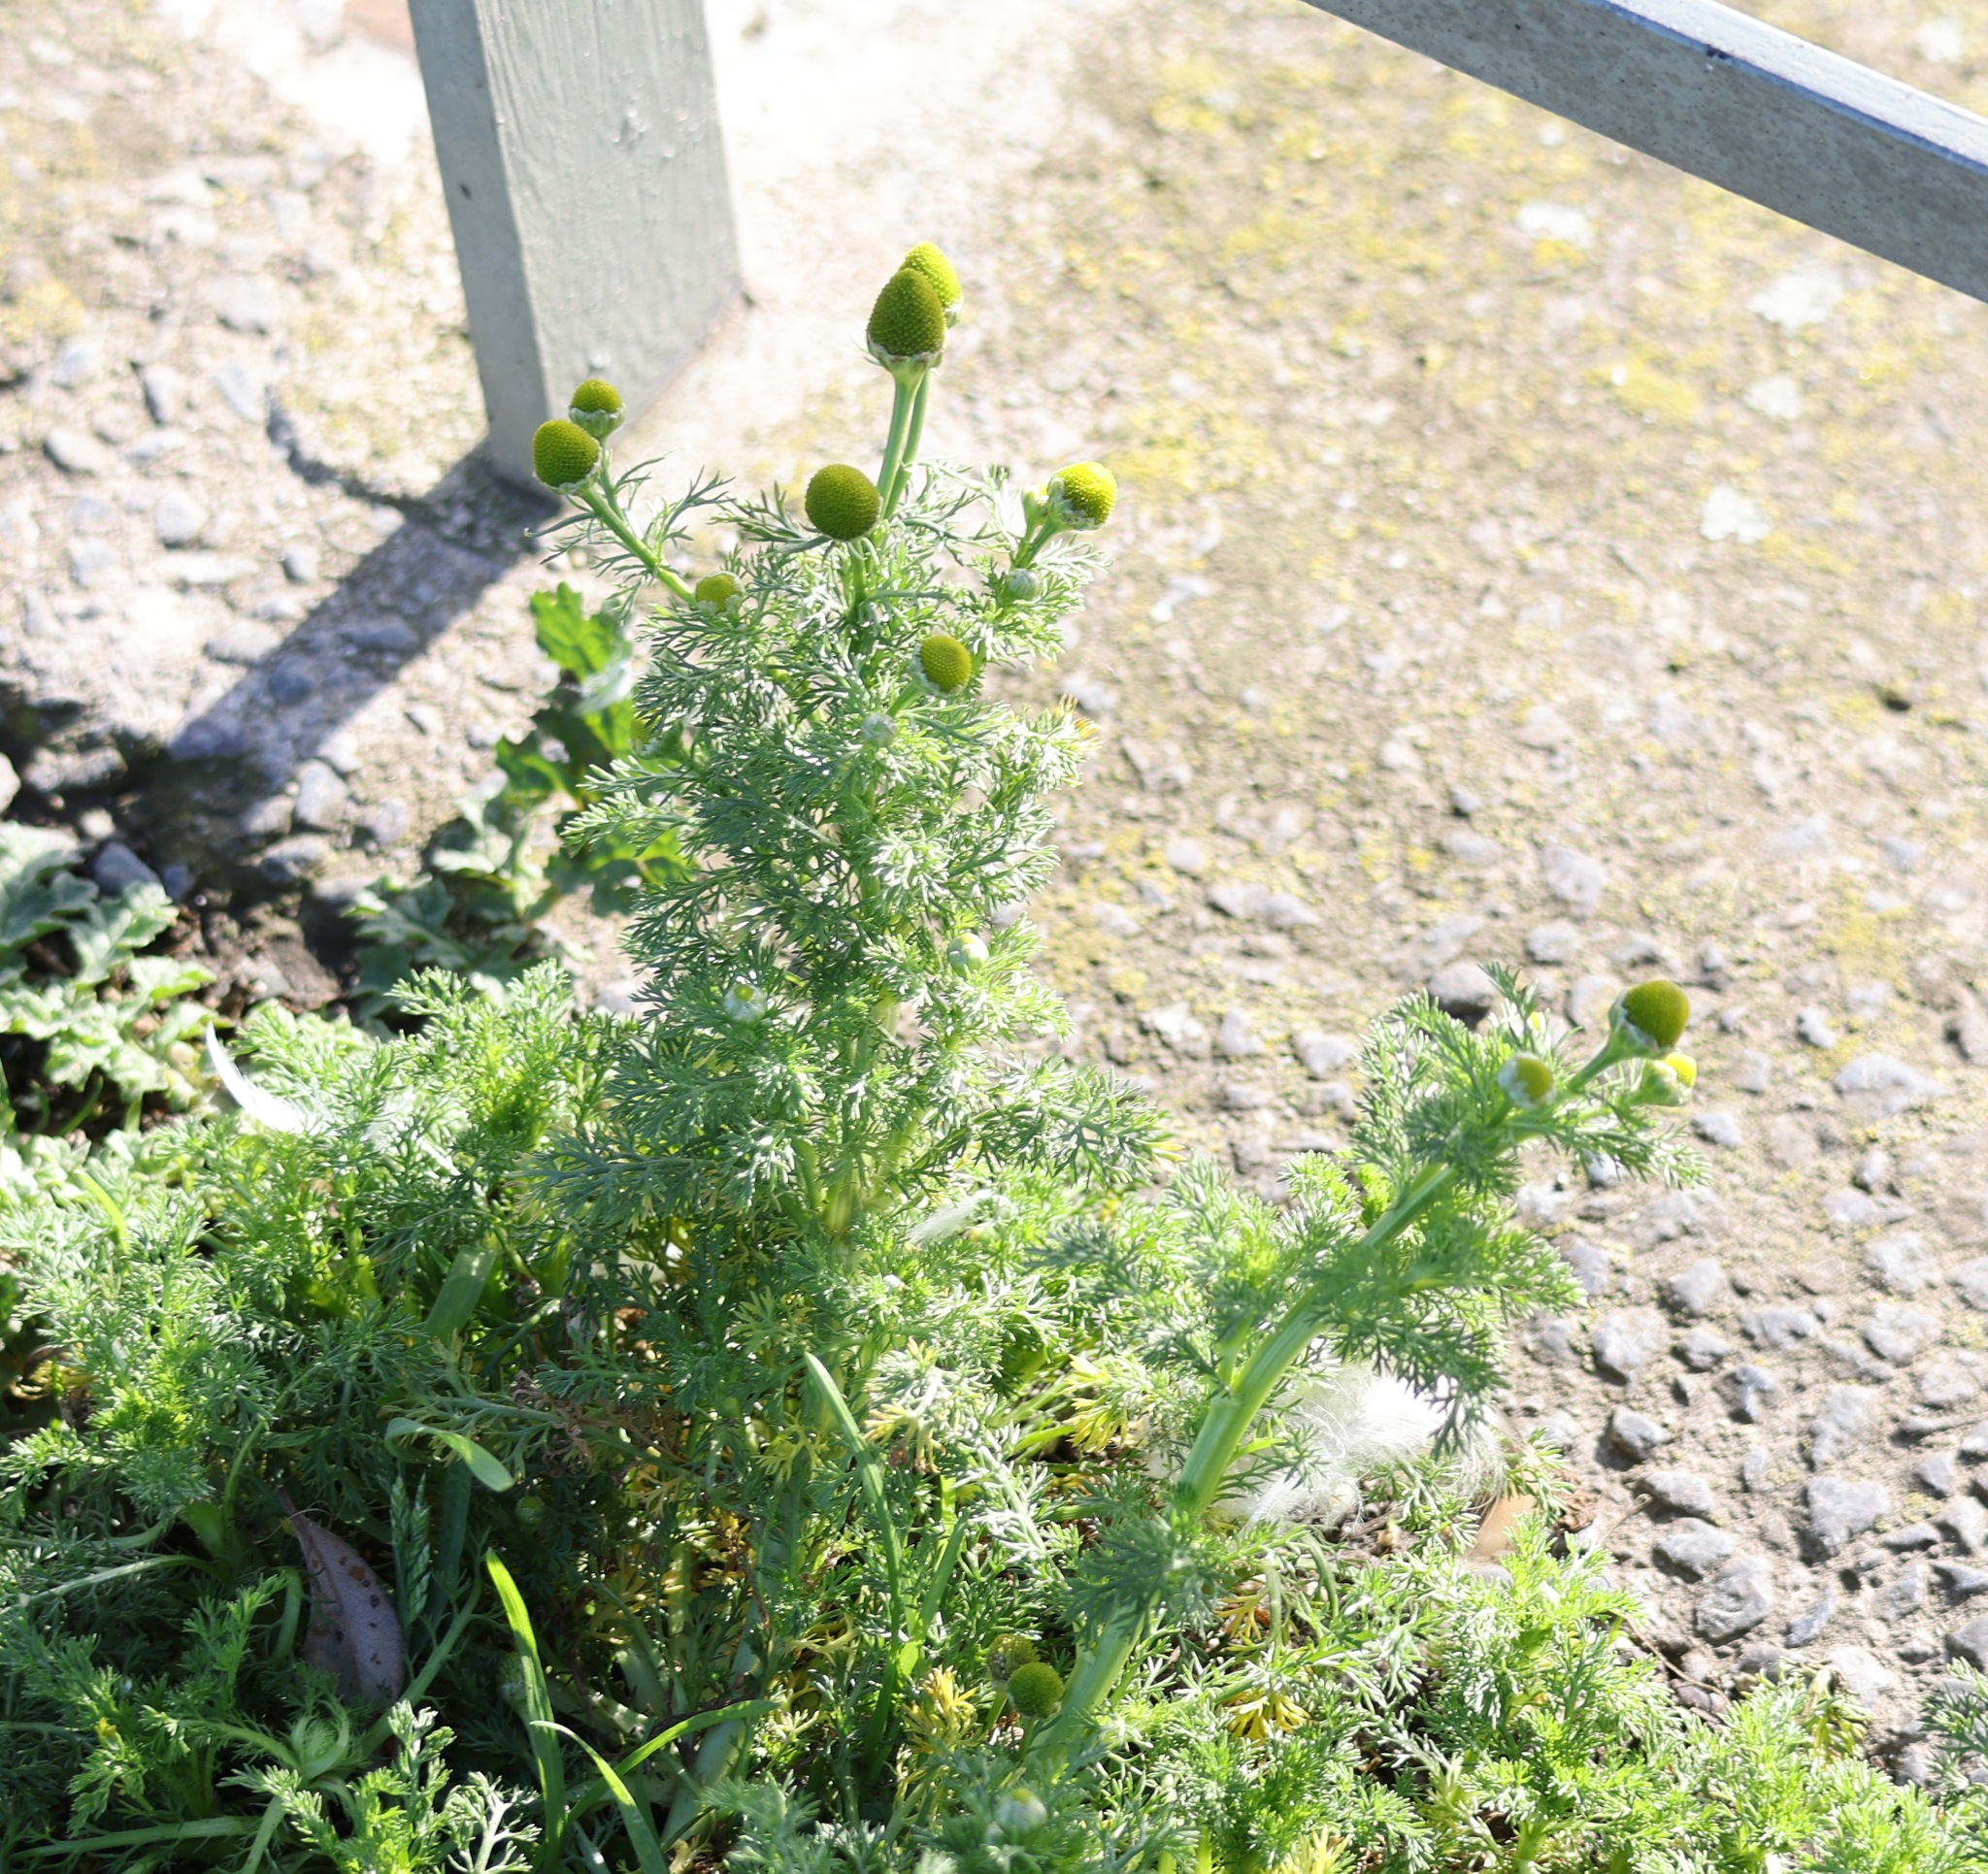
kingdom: Plantae
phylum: Tracheophyta
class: Magnoliopsida
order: Asterales
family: Asteraceae
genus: Matricaria
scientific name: Matricaria discoidea
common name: Disc mayweed
